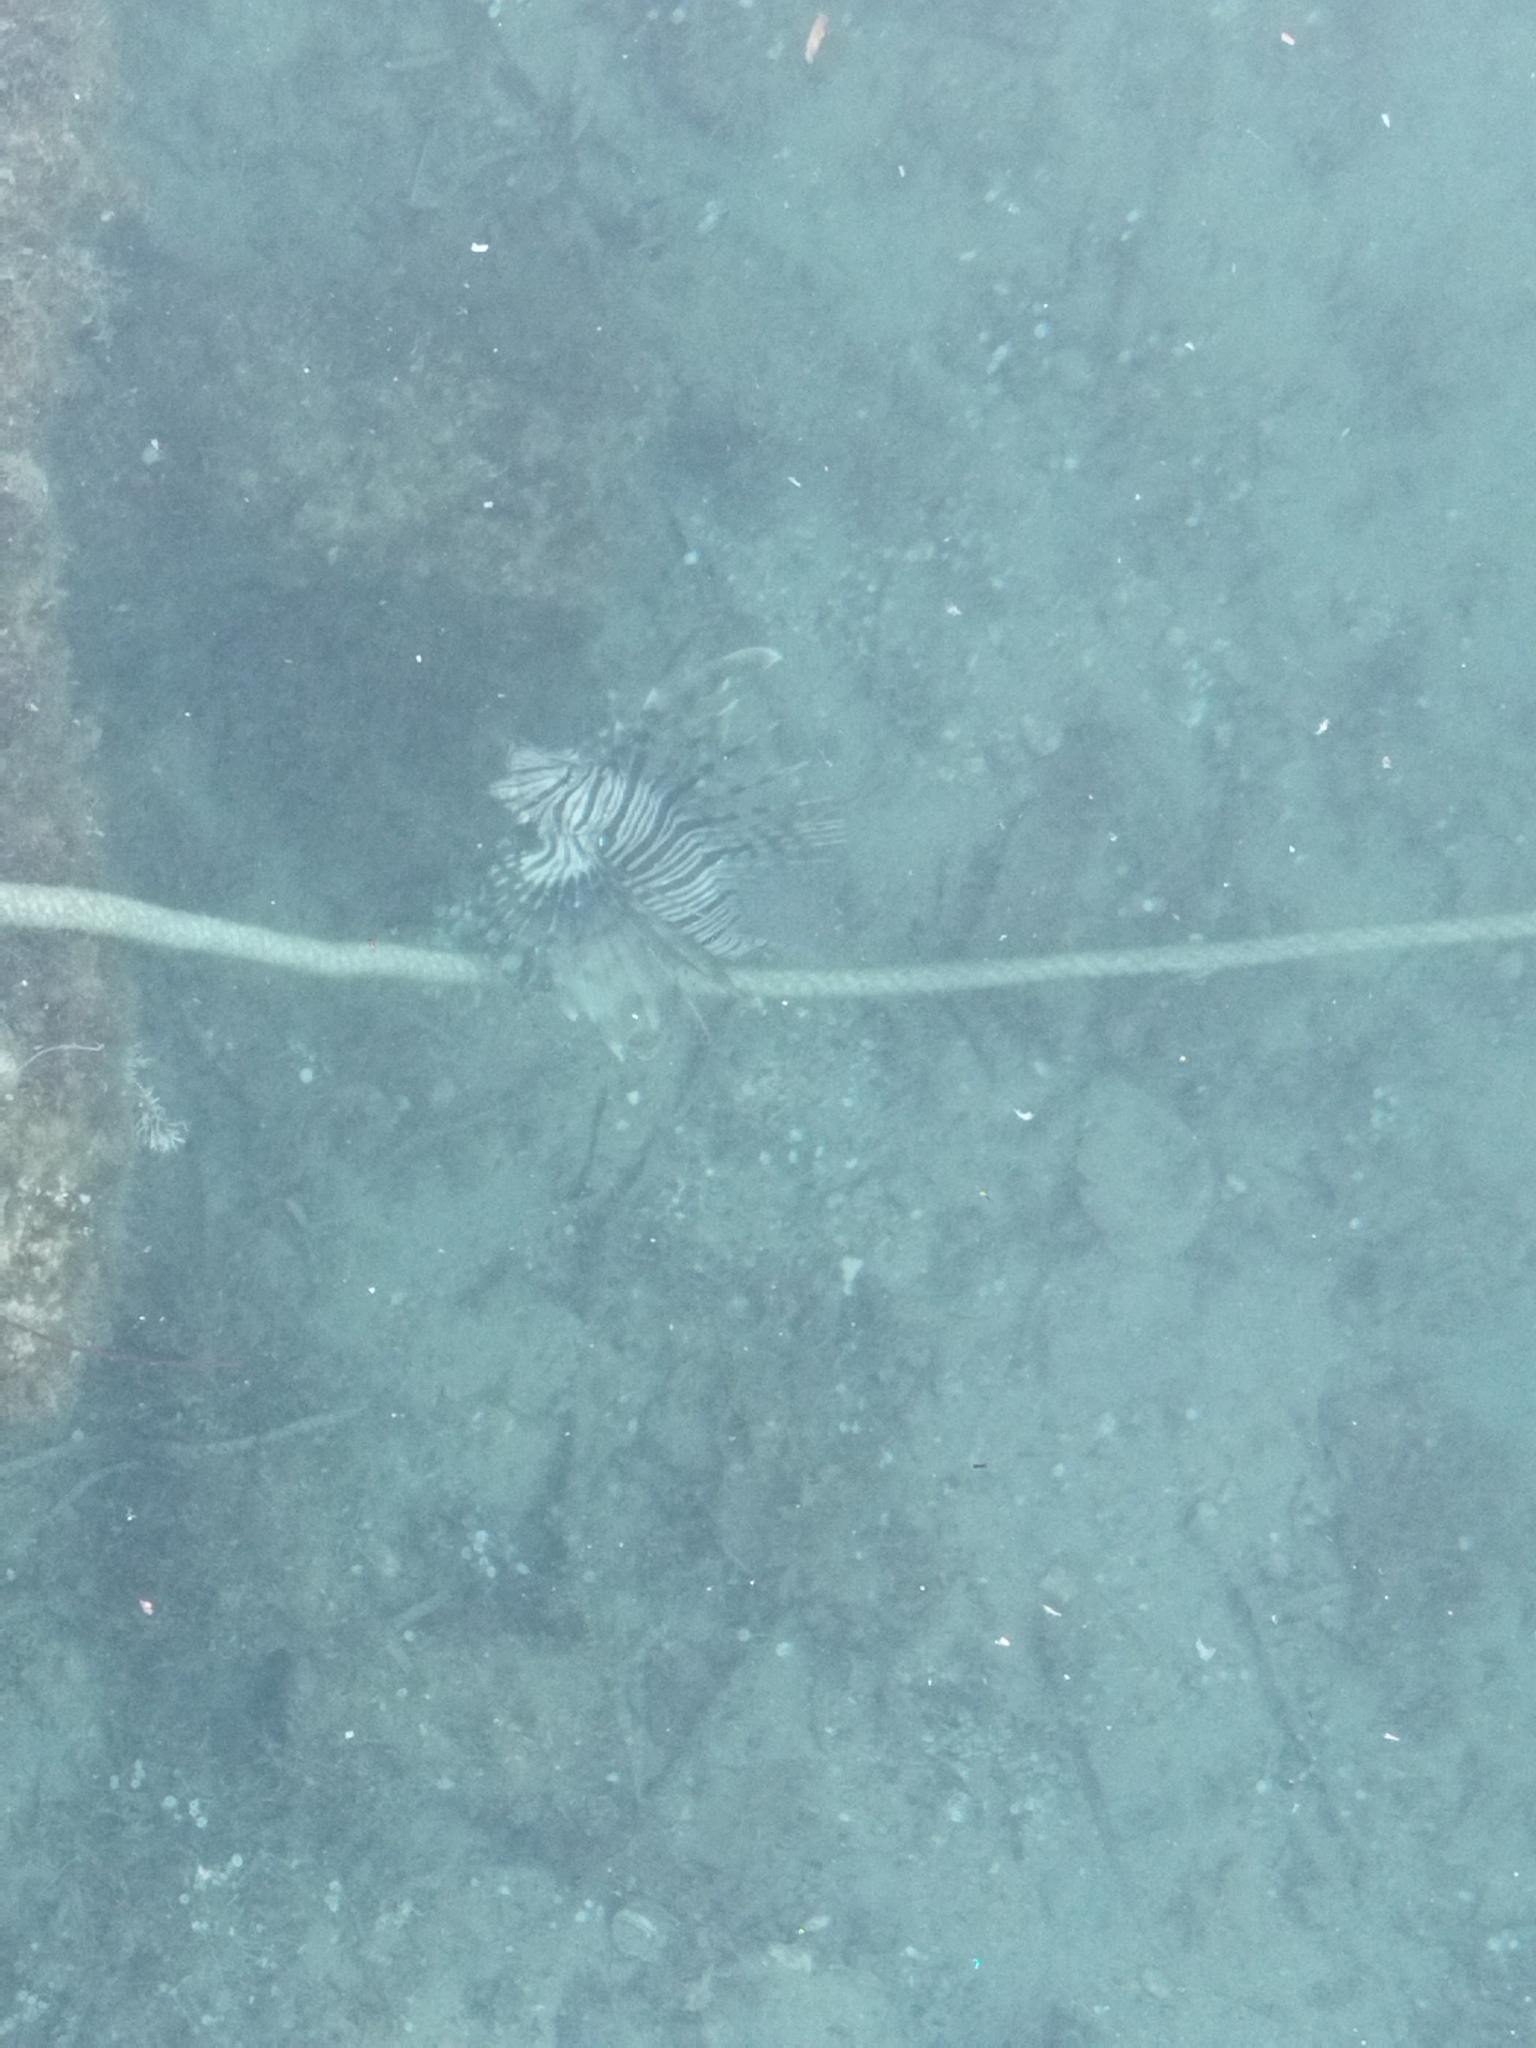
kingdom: Animalia
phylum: Chordata
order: Scorpaeniformes
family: Scorpaenidae
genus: Pterois
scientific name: Pterois miles
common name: Devil firefish
